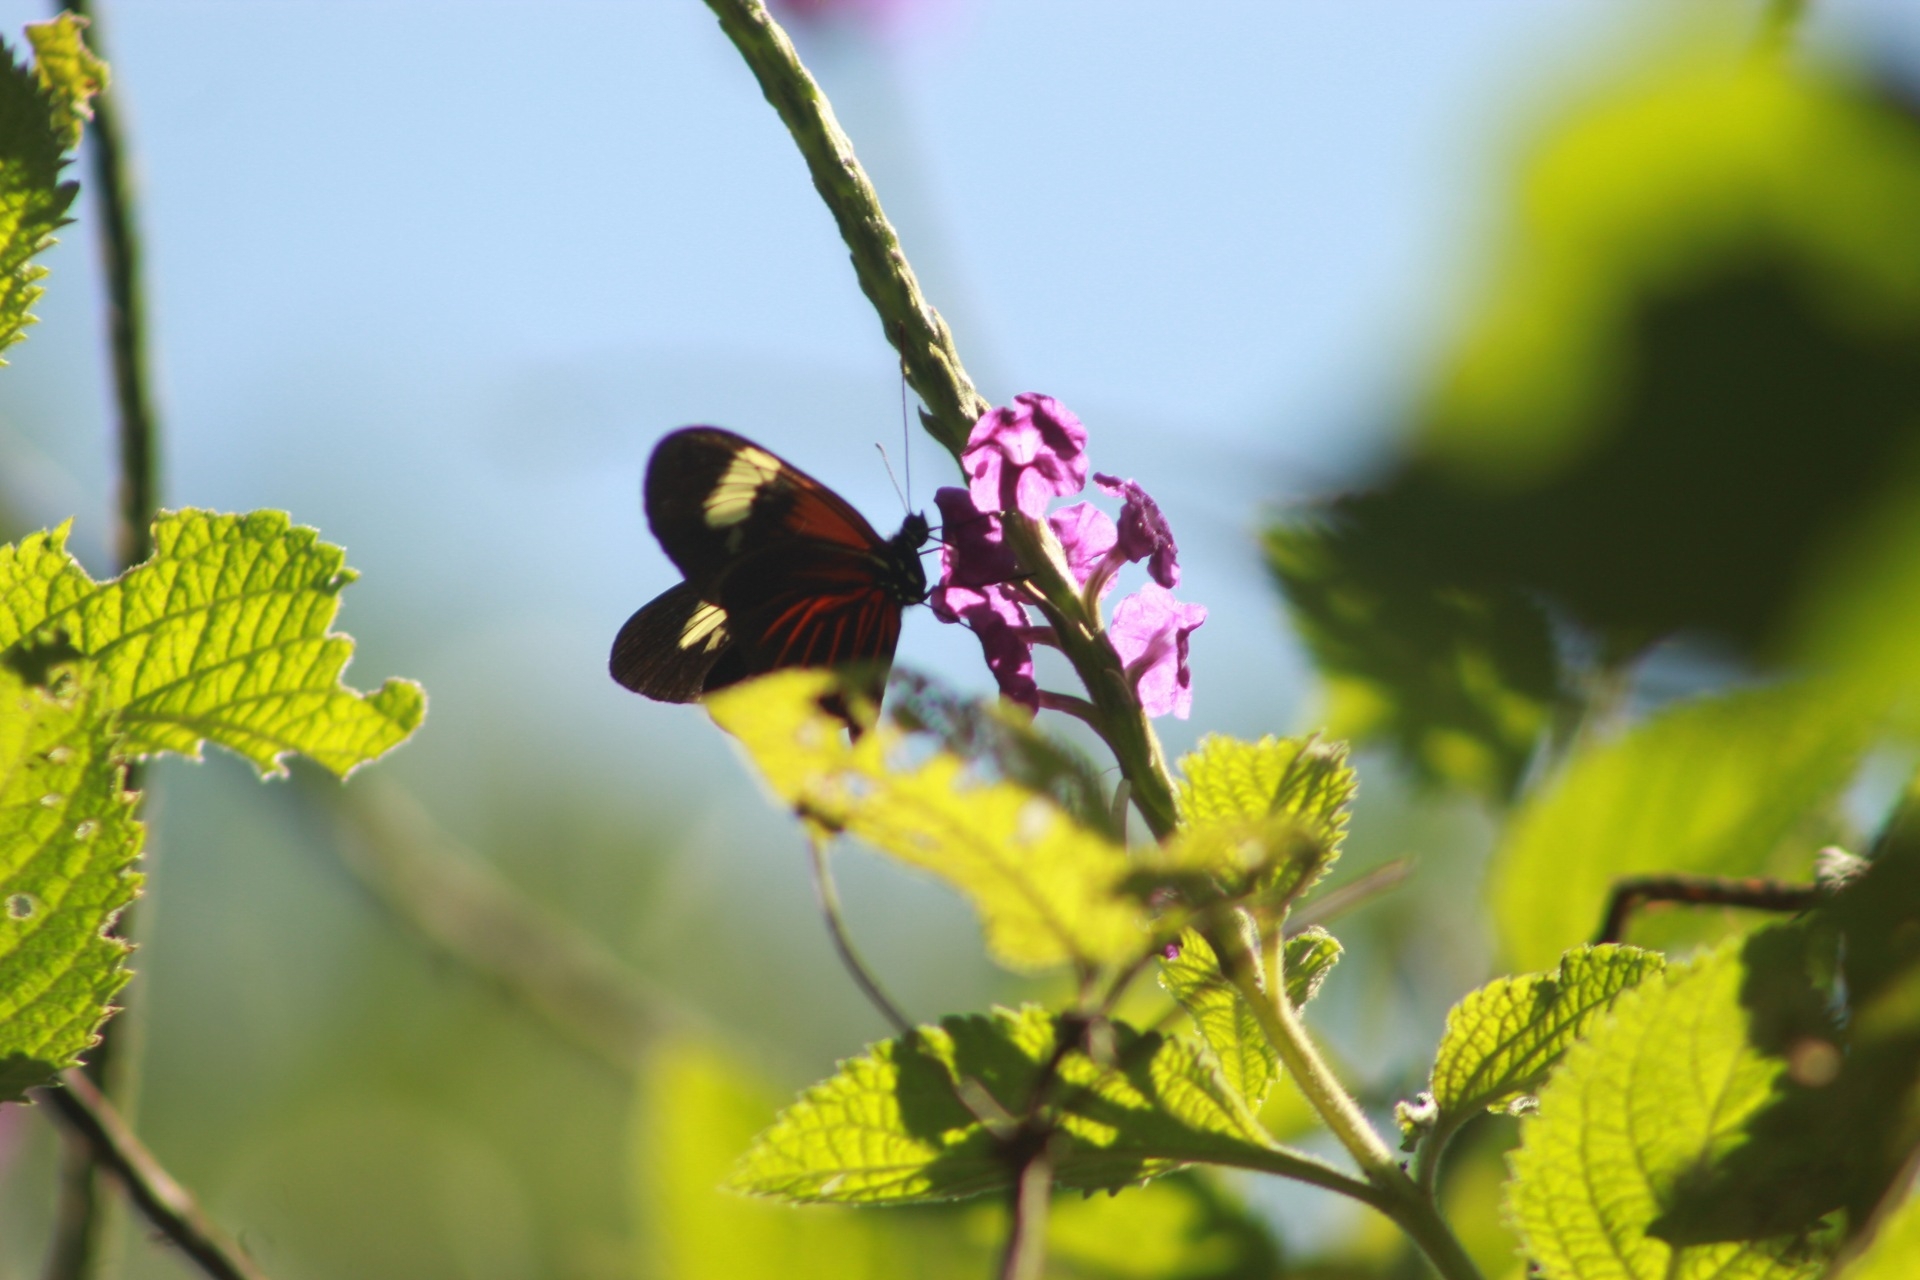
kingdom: Animalia
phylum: Arthropoda
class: Insecta
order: Lepidoptera
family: Nymphalidae
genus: Heliconius
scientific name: Heliconius erato
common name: Common patch longwing
